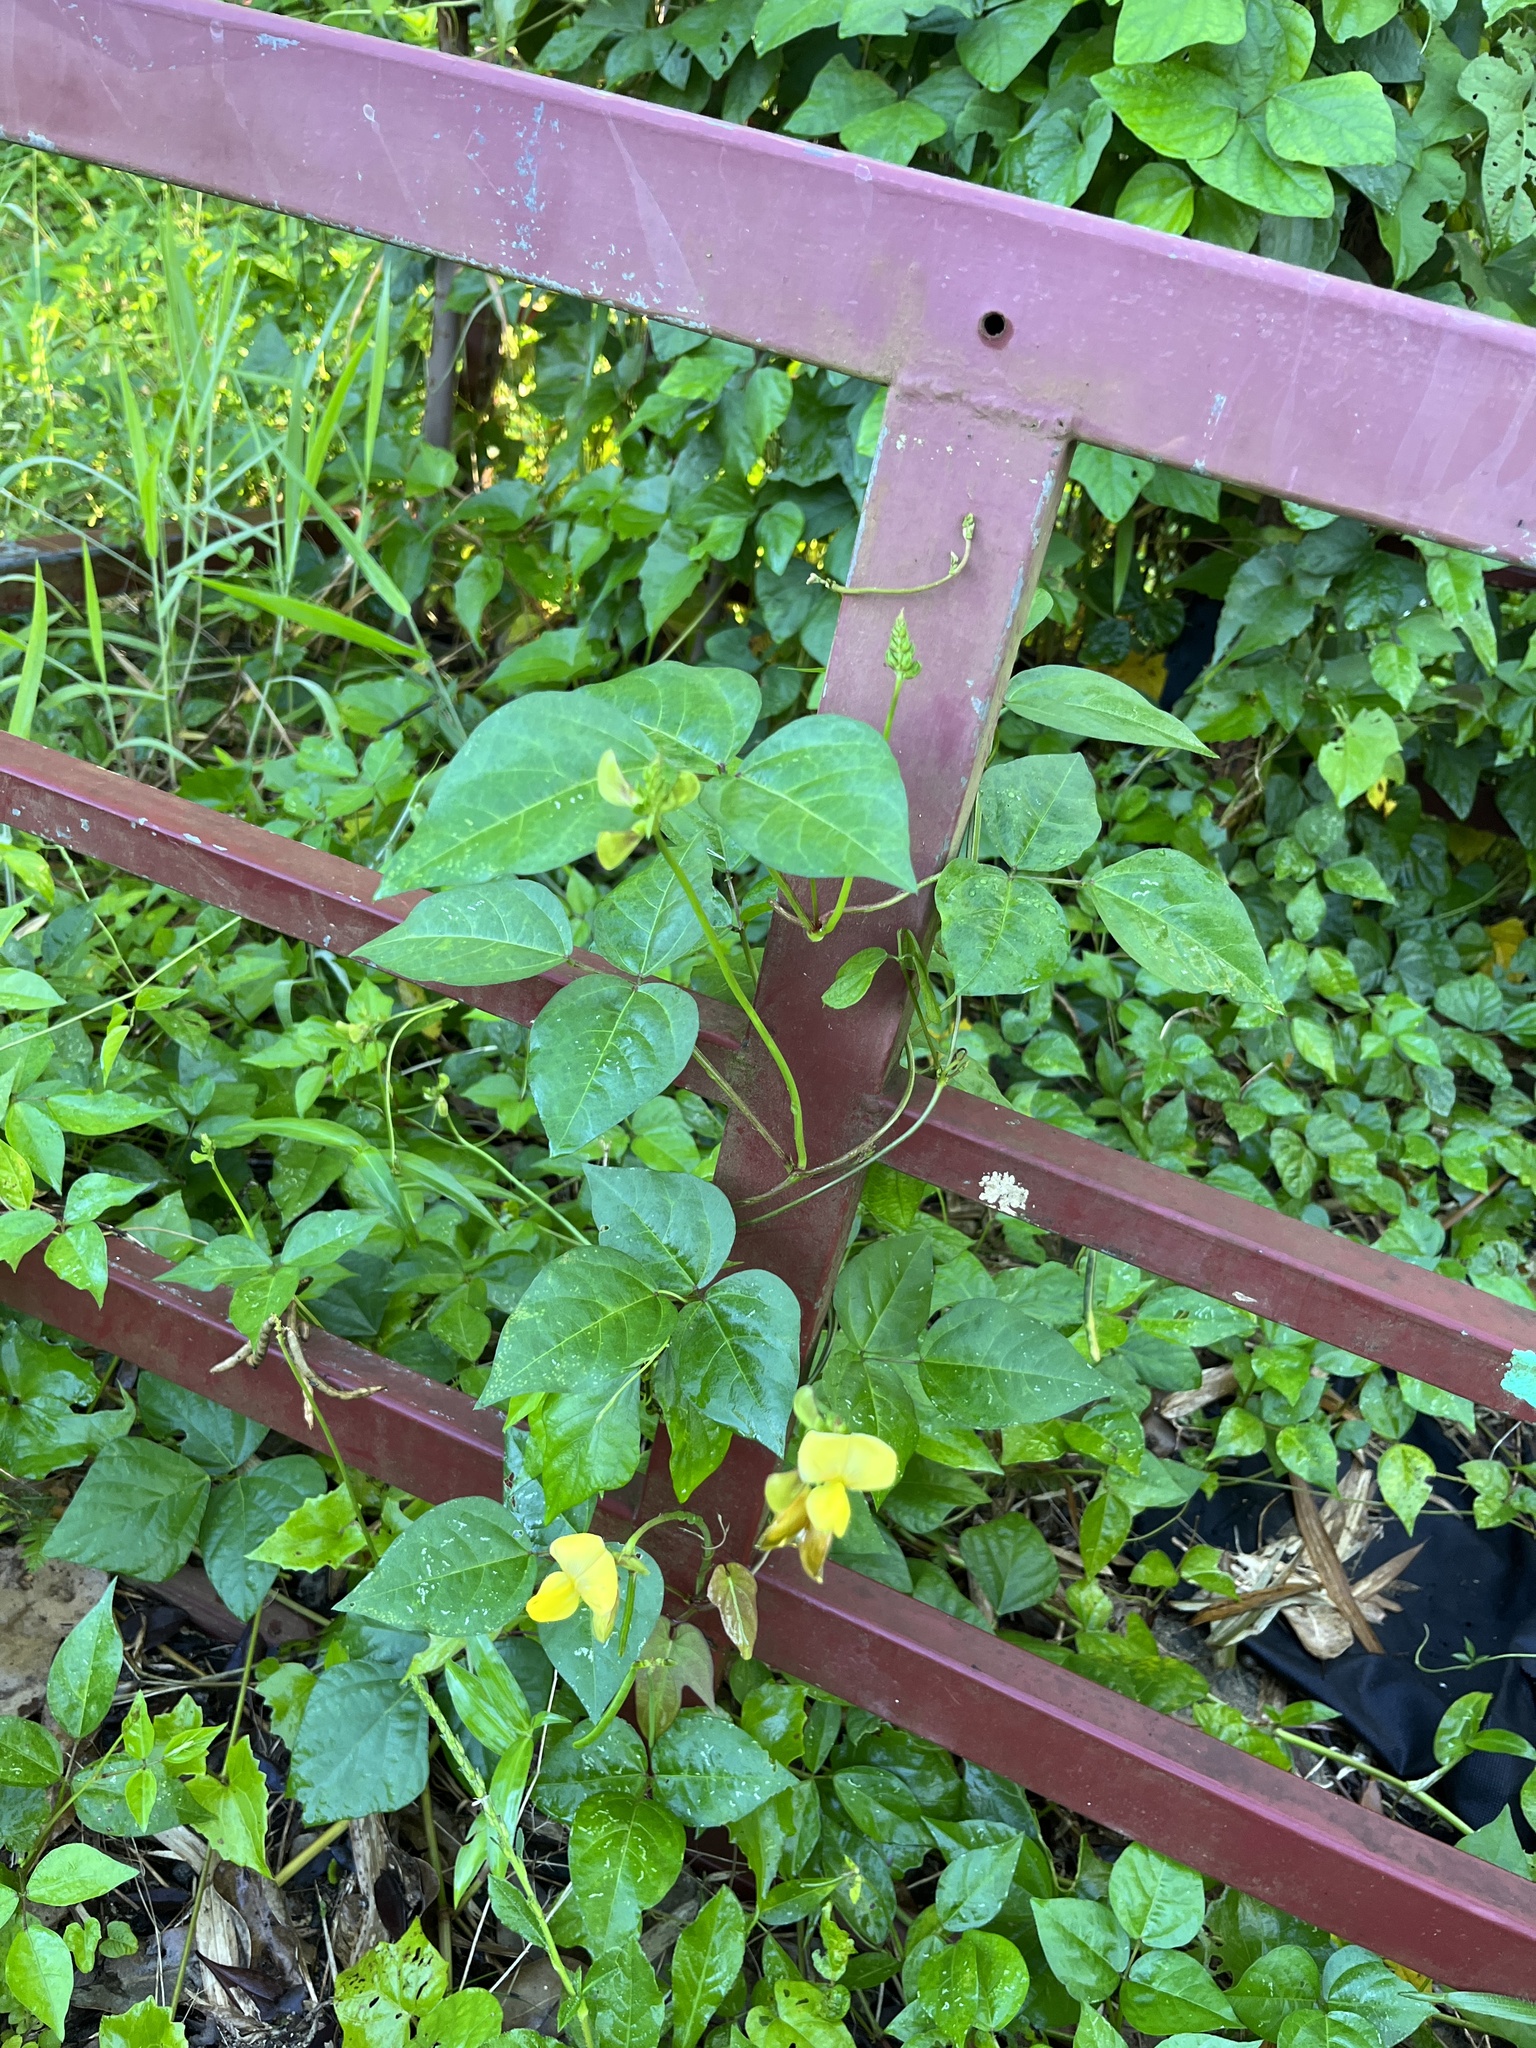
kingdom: Plantae
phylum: Tracheophyta
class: Magnoliopsida
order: Fabales
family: Fabaceae
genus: Vigna
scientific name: Vigna luteola
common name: Hairypod cowpea
